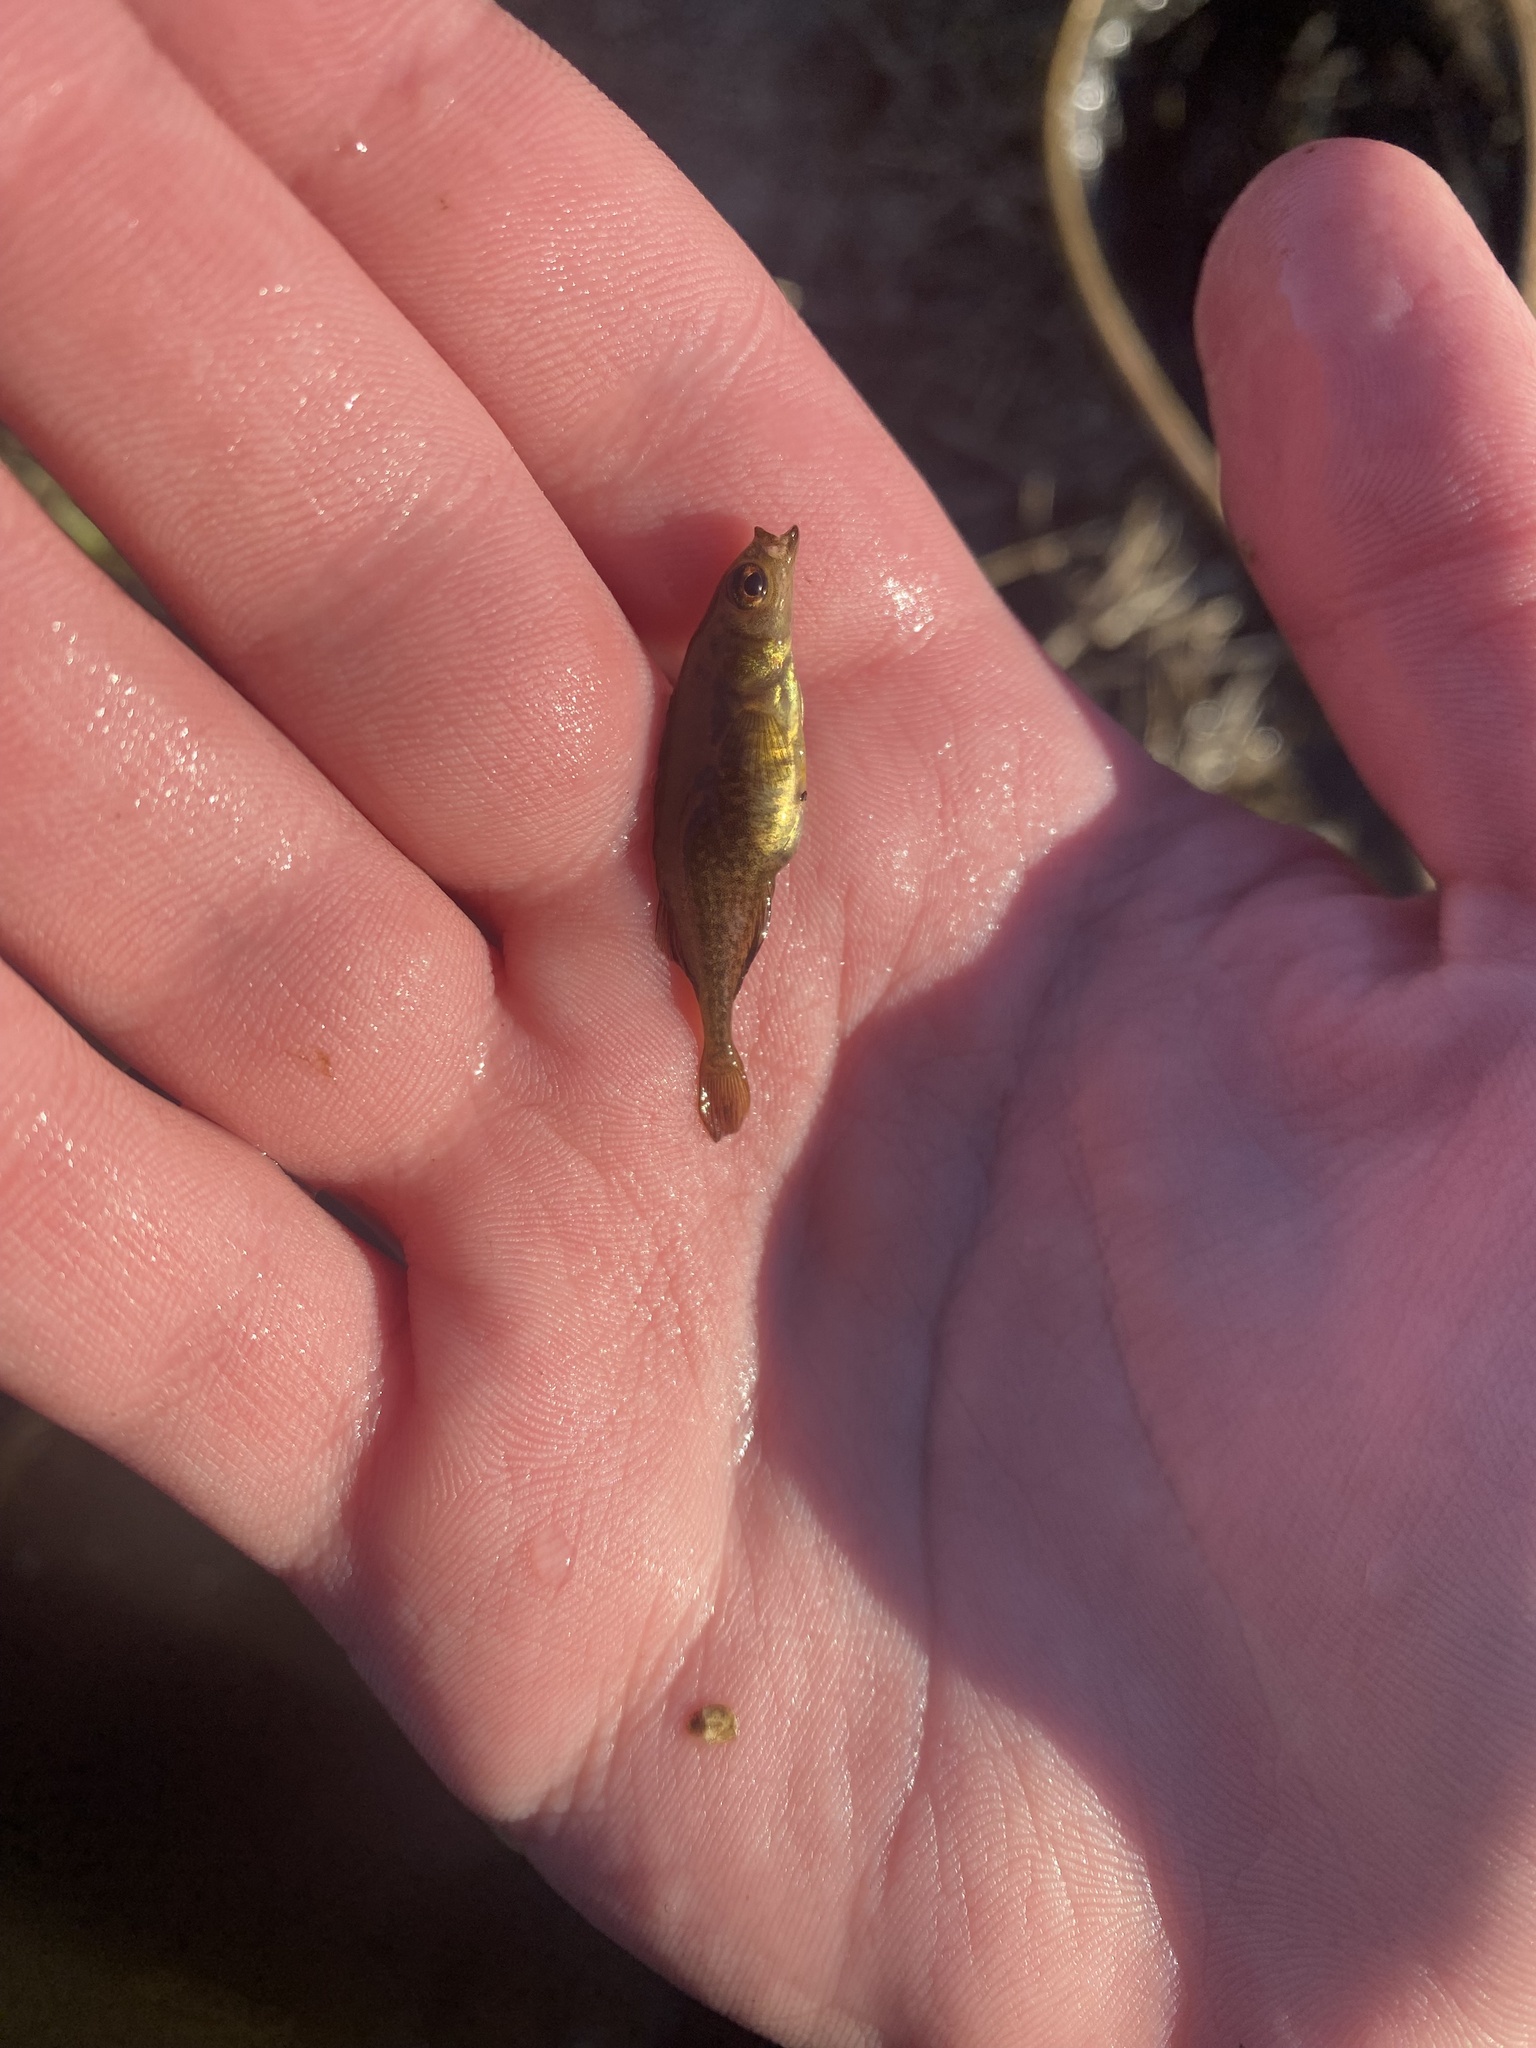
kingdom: Animalia
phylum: Chordata
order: Gasterosteiformes
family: Gasterosteidae
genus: Culaea
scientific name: Culaea inconstans
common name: Brook stickleback
